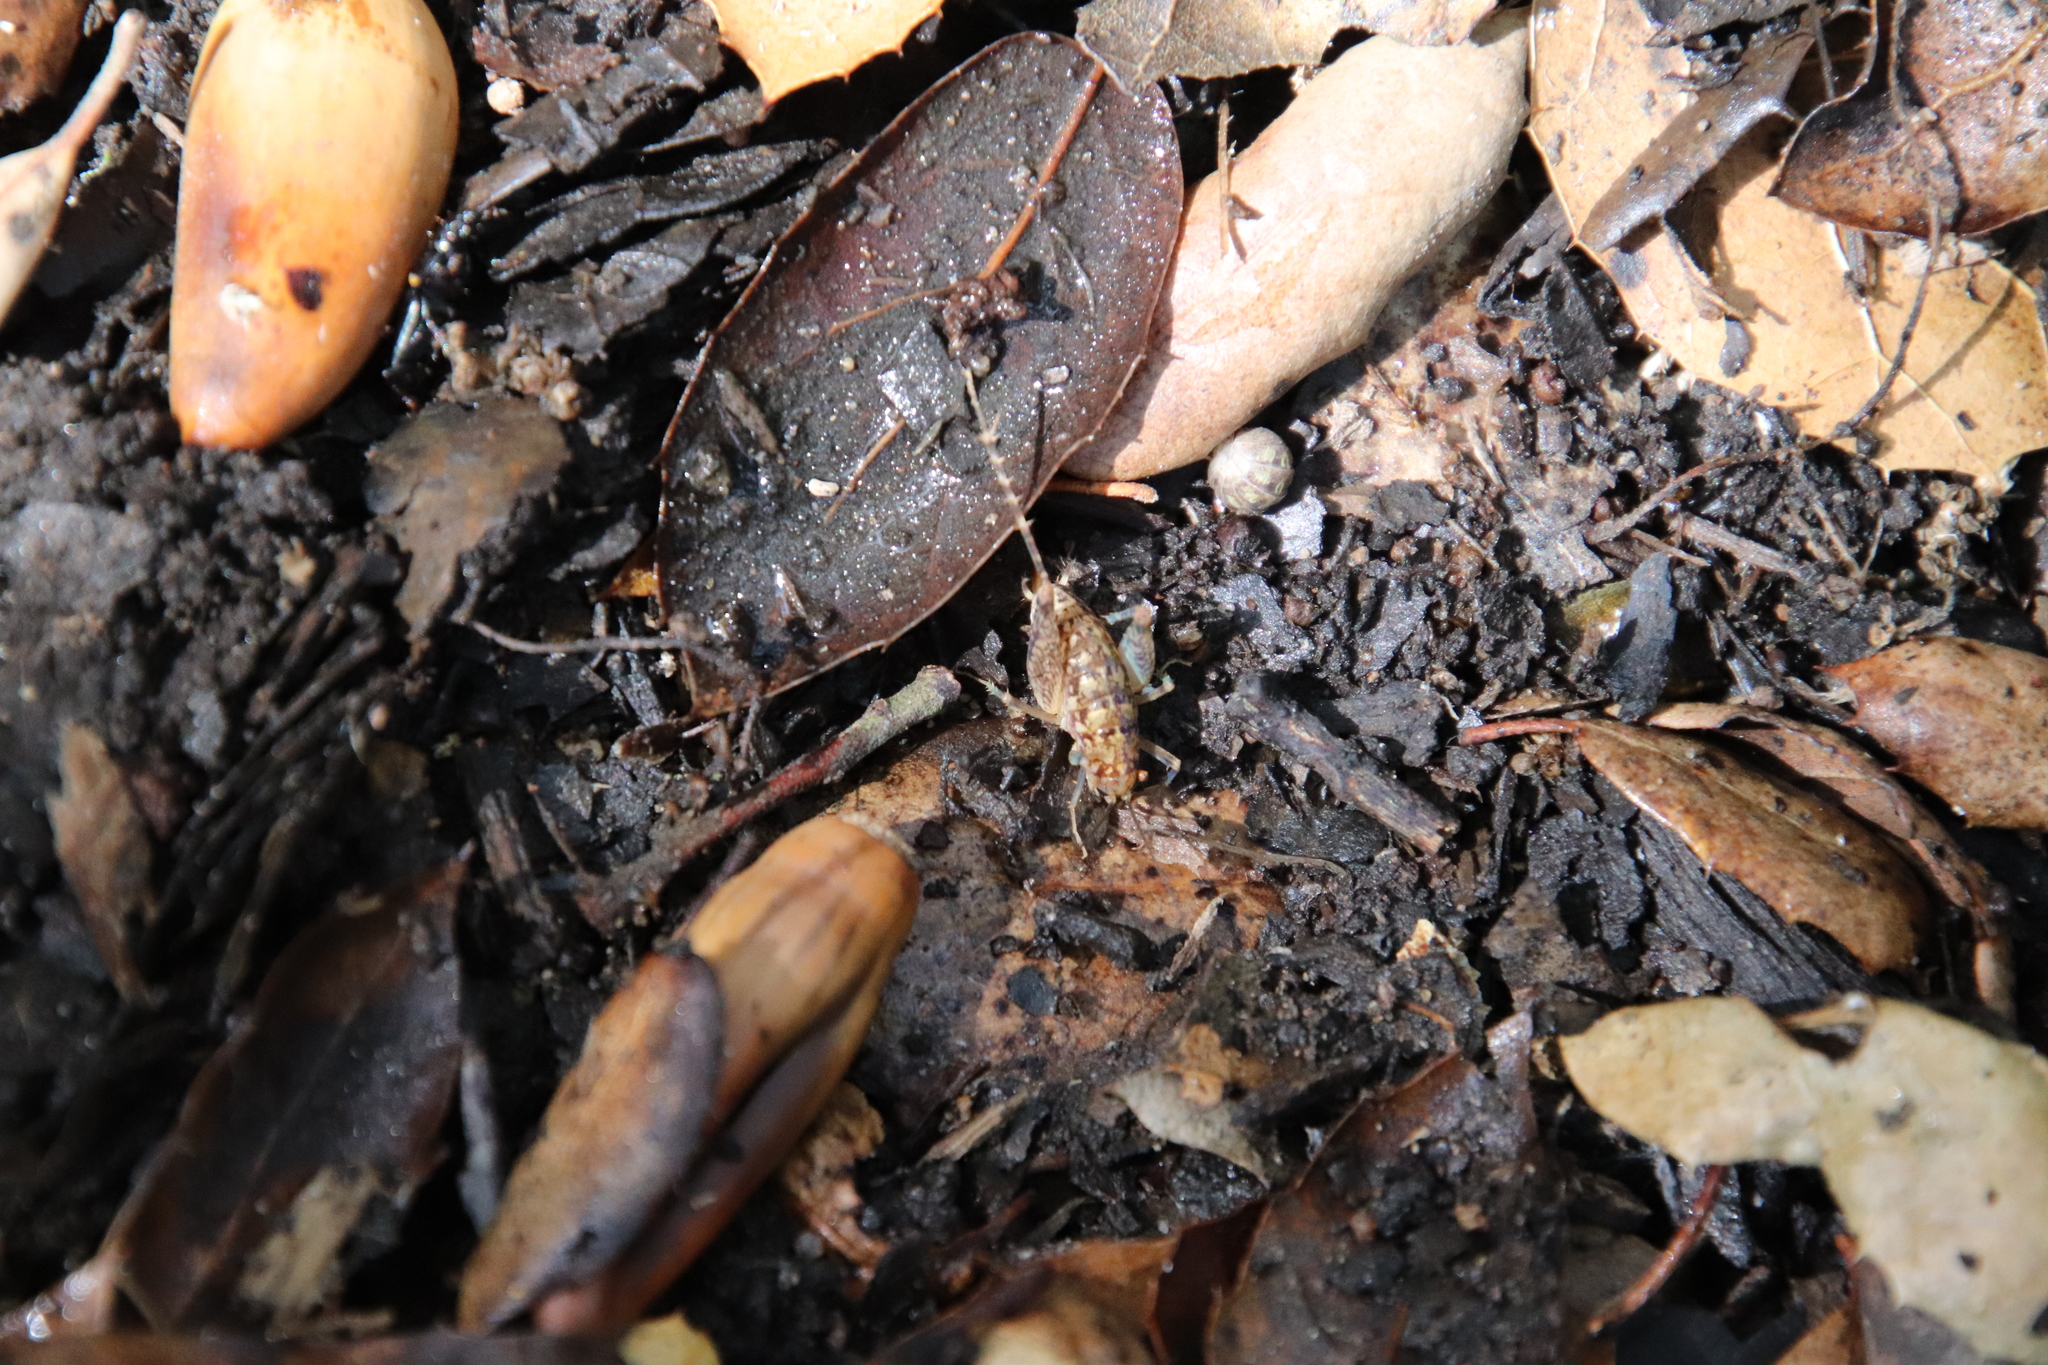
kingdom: Animalia
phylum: Arthropoda
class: Insecta
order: Orthoptera
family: Rhaphidophoridae
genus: Pristoceuthophilus
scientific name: Pristoceuthophilus
